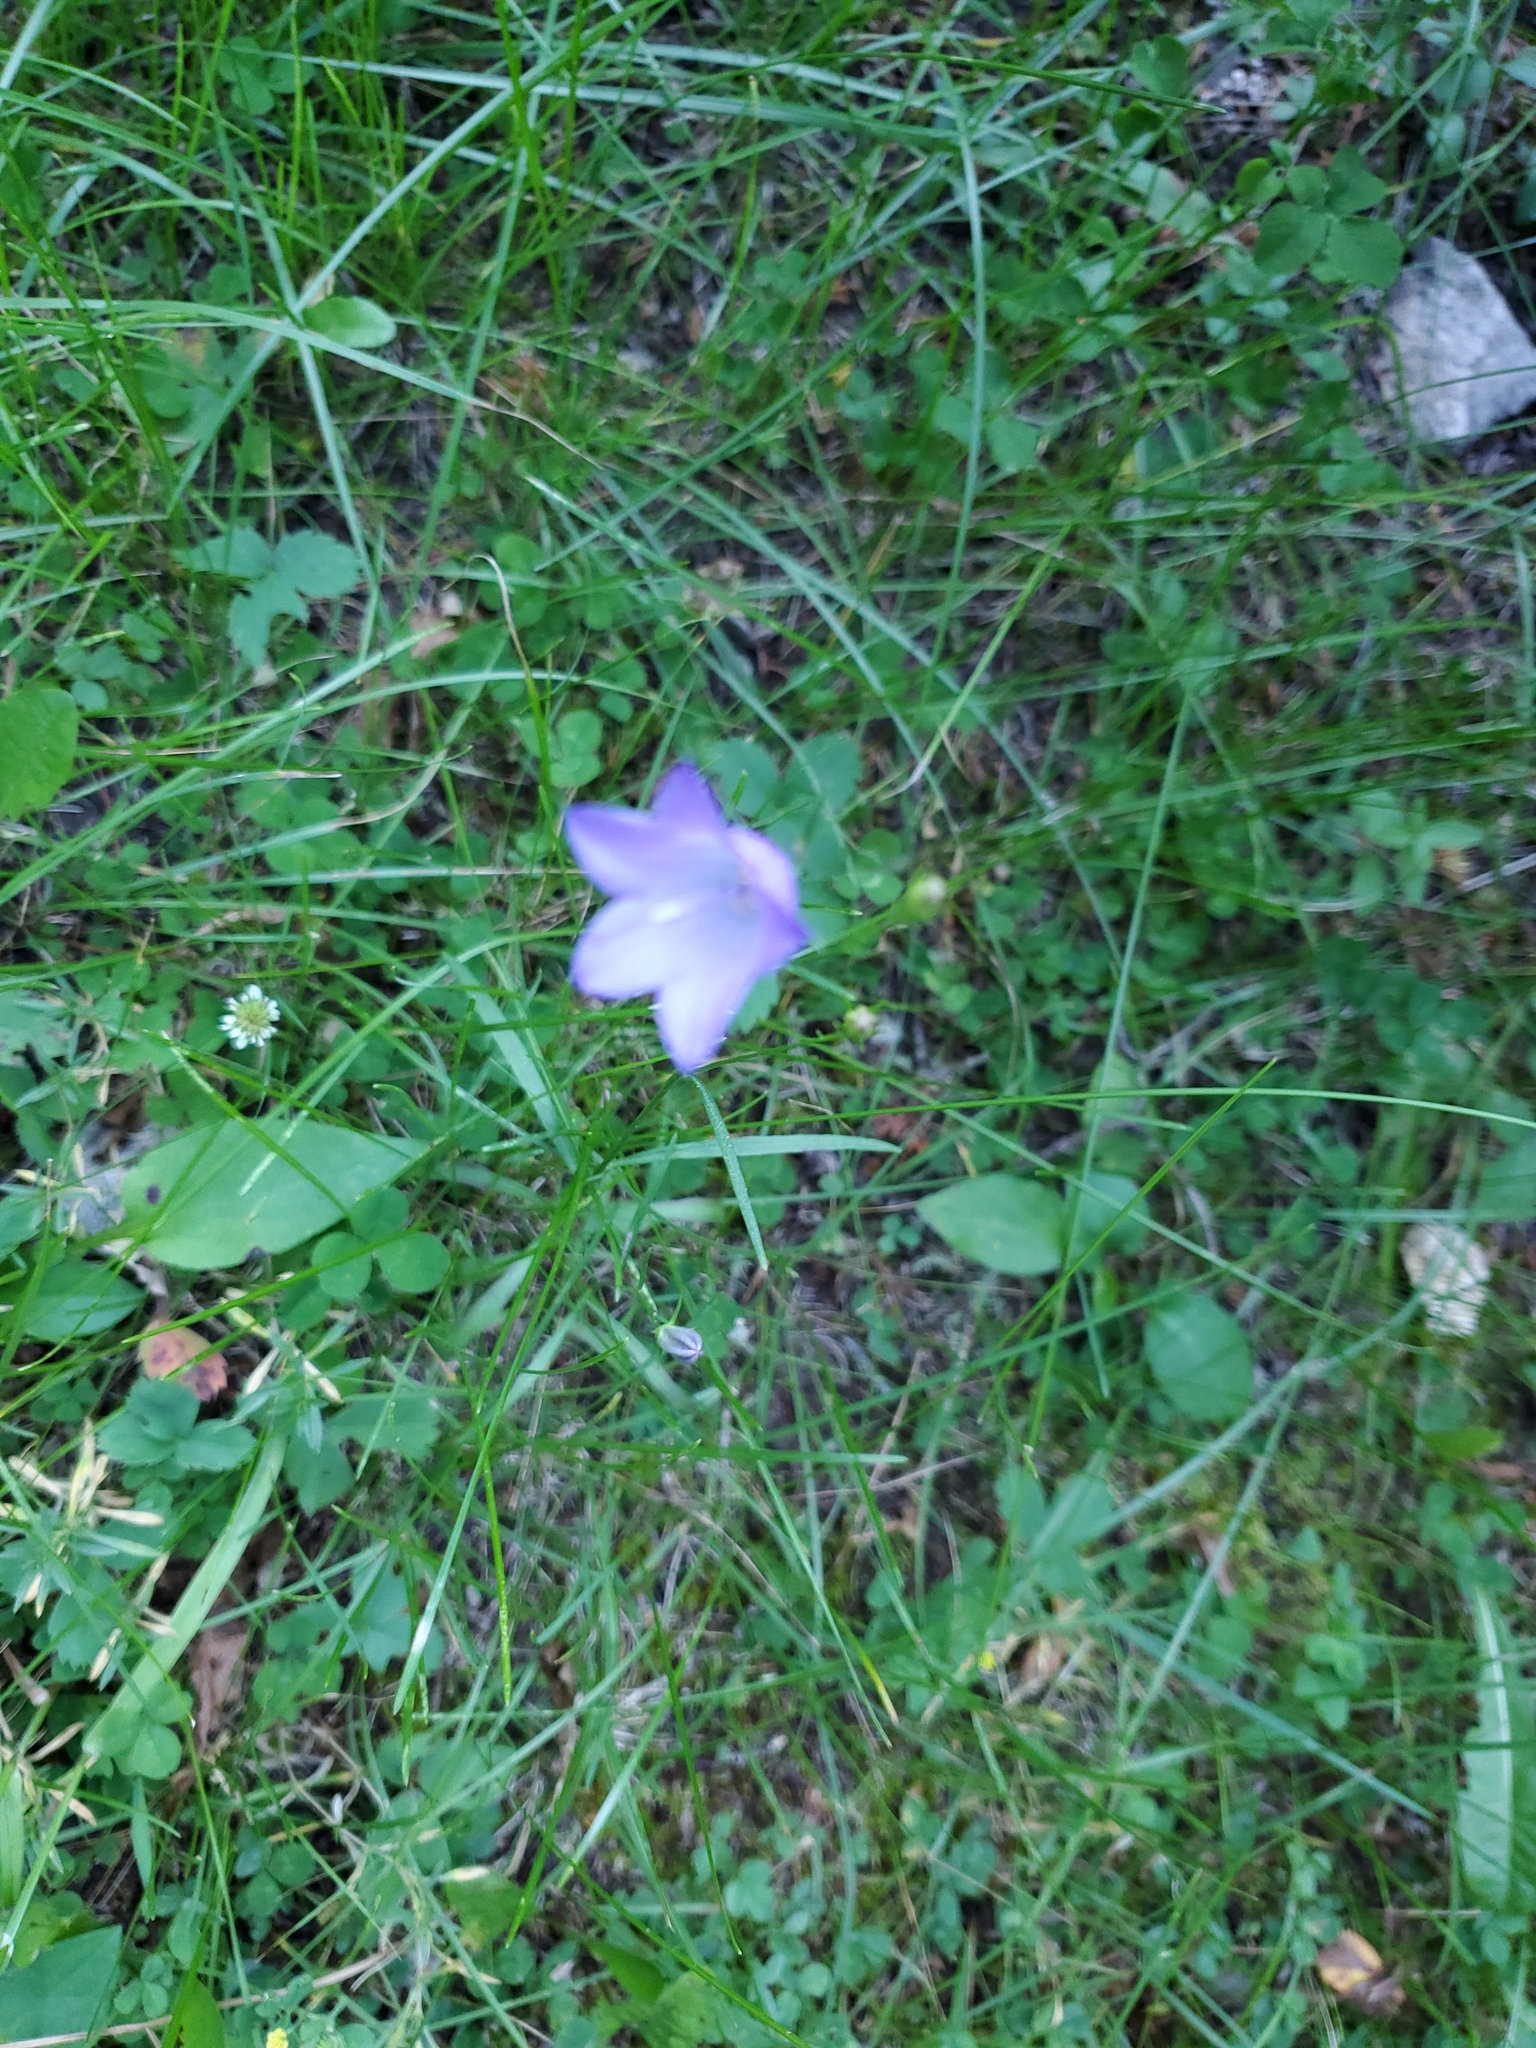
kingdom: Plantae
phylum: Tracheophyta
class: Magnoliopsida
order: Asterales
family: Campanulaceae
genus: Campanula
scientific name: Campanula petiolata
